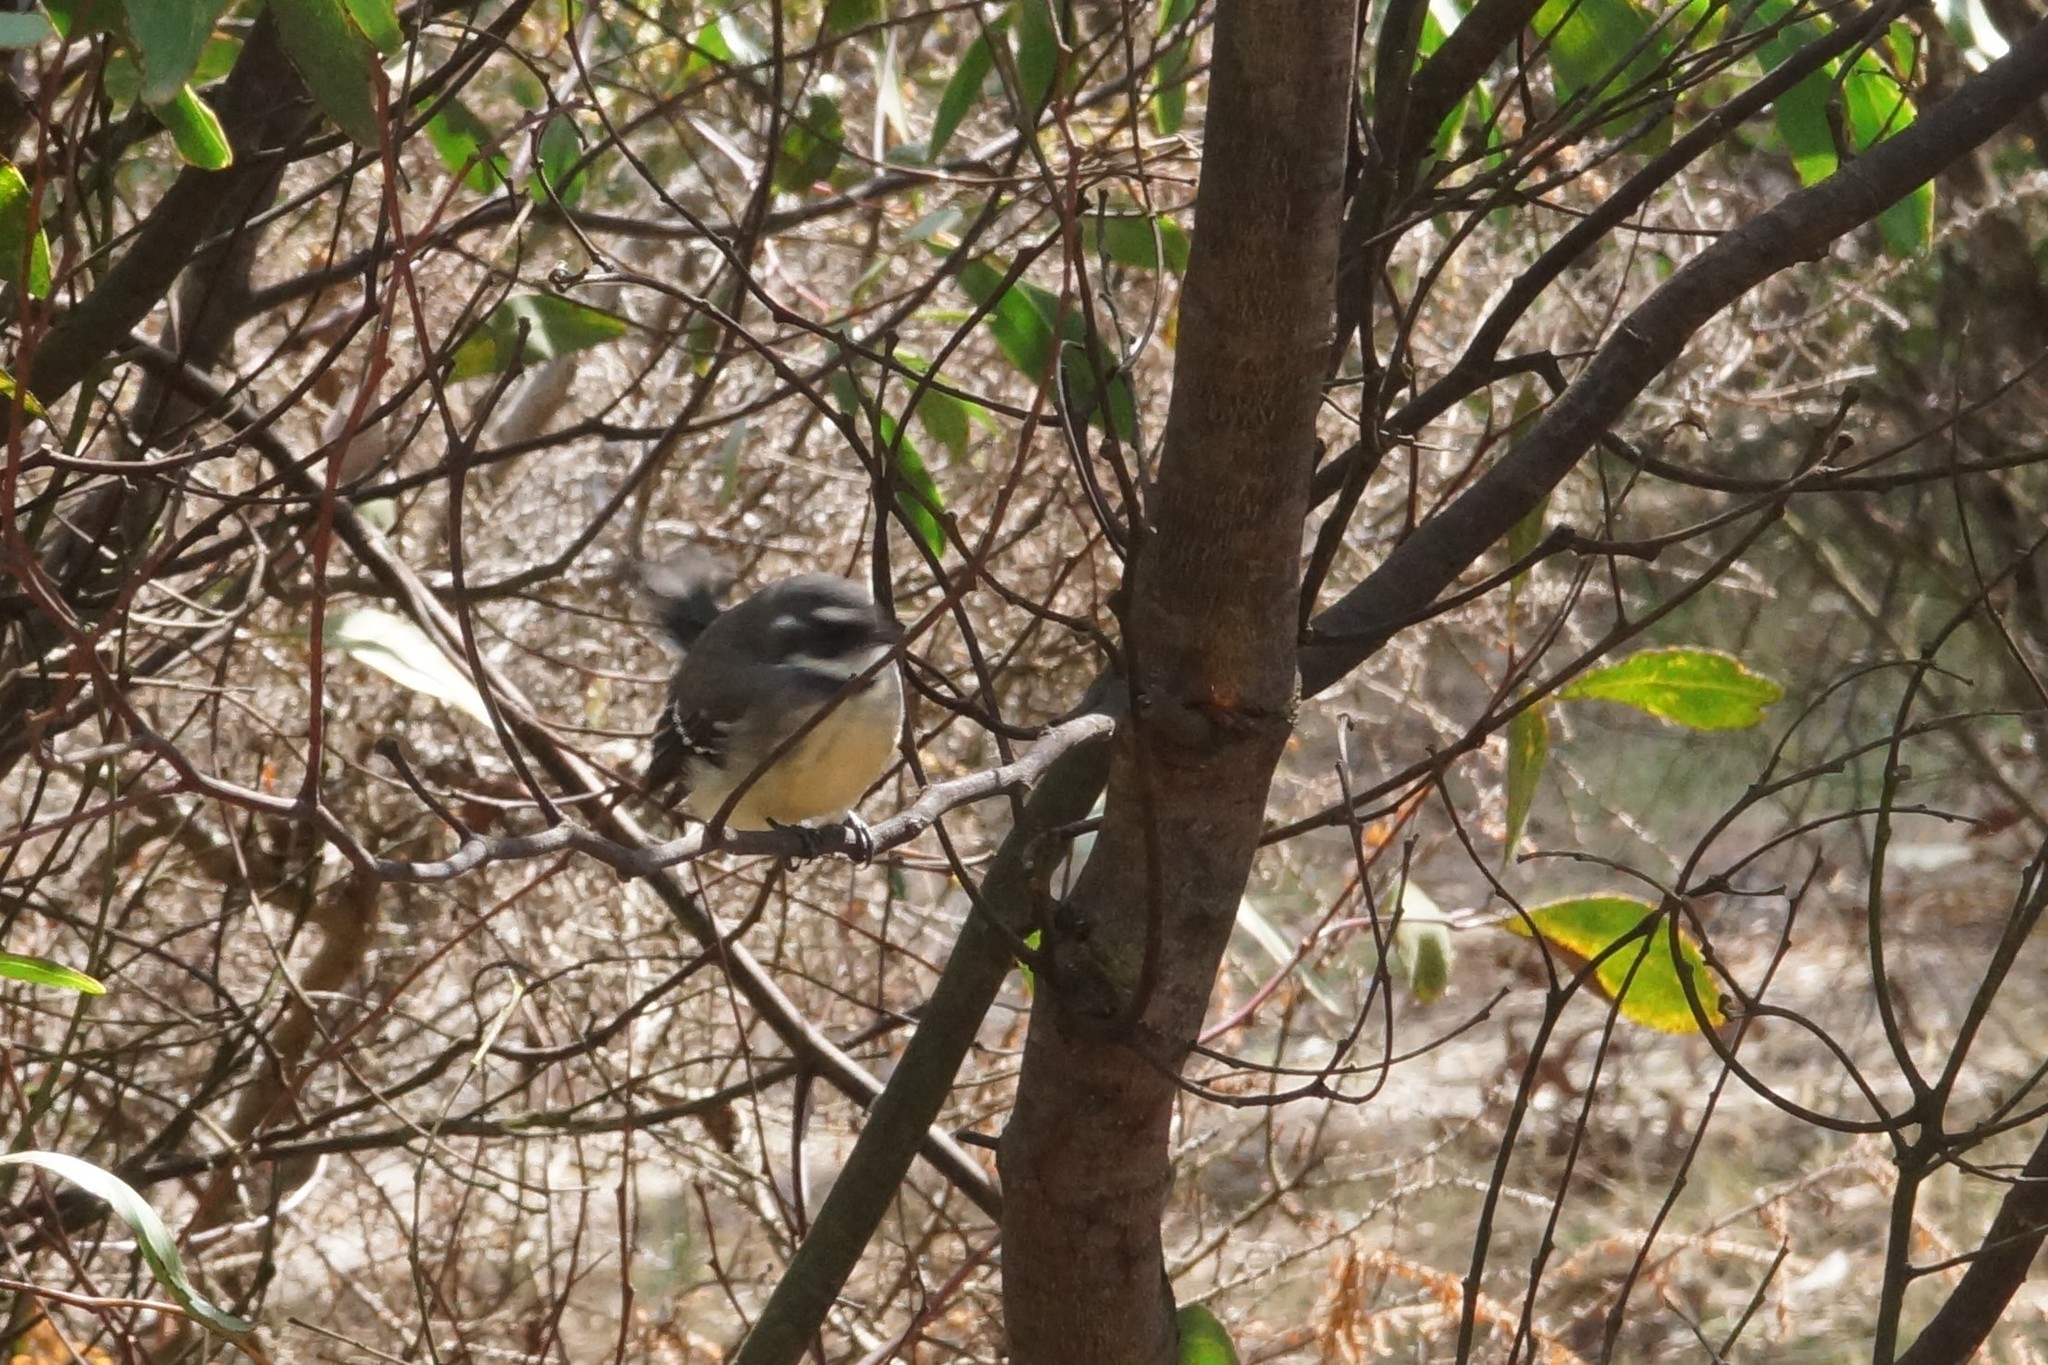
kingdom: Animalia
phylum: Chordata
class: Aves
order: Passeriformes
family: Rhipiduridae
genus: Rhipidura
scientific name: Rhipidura albiscapa
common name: Grey fantail
